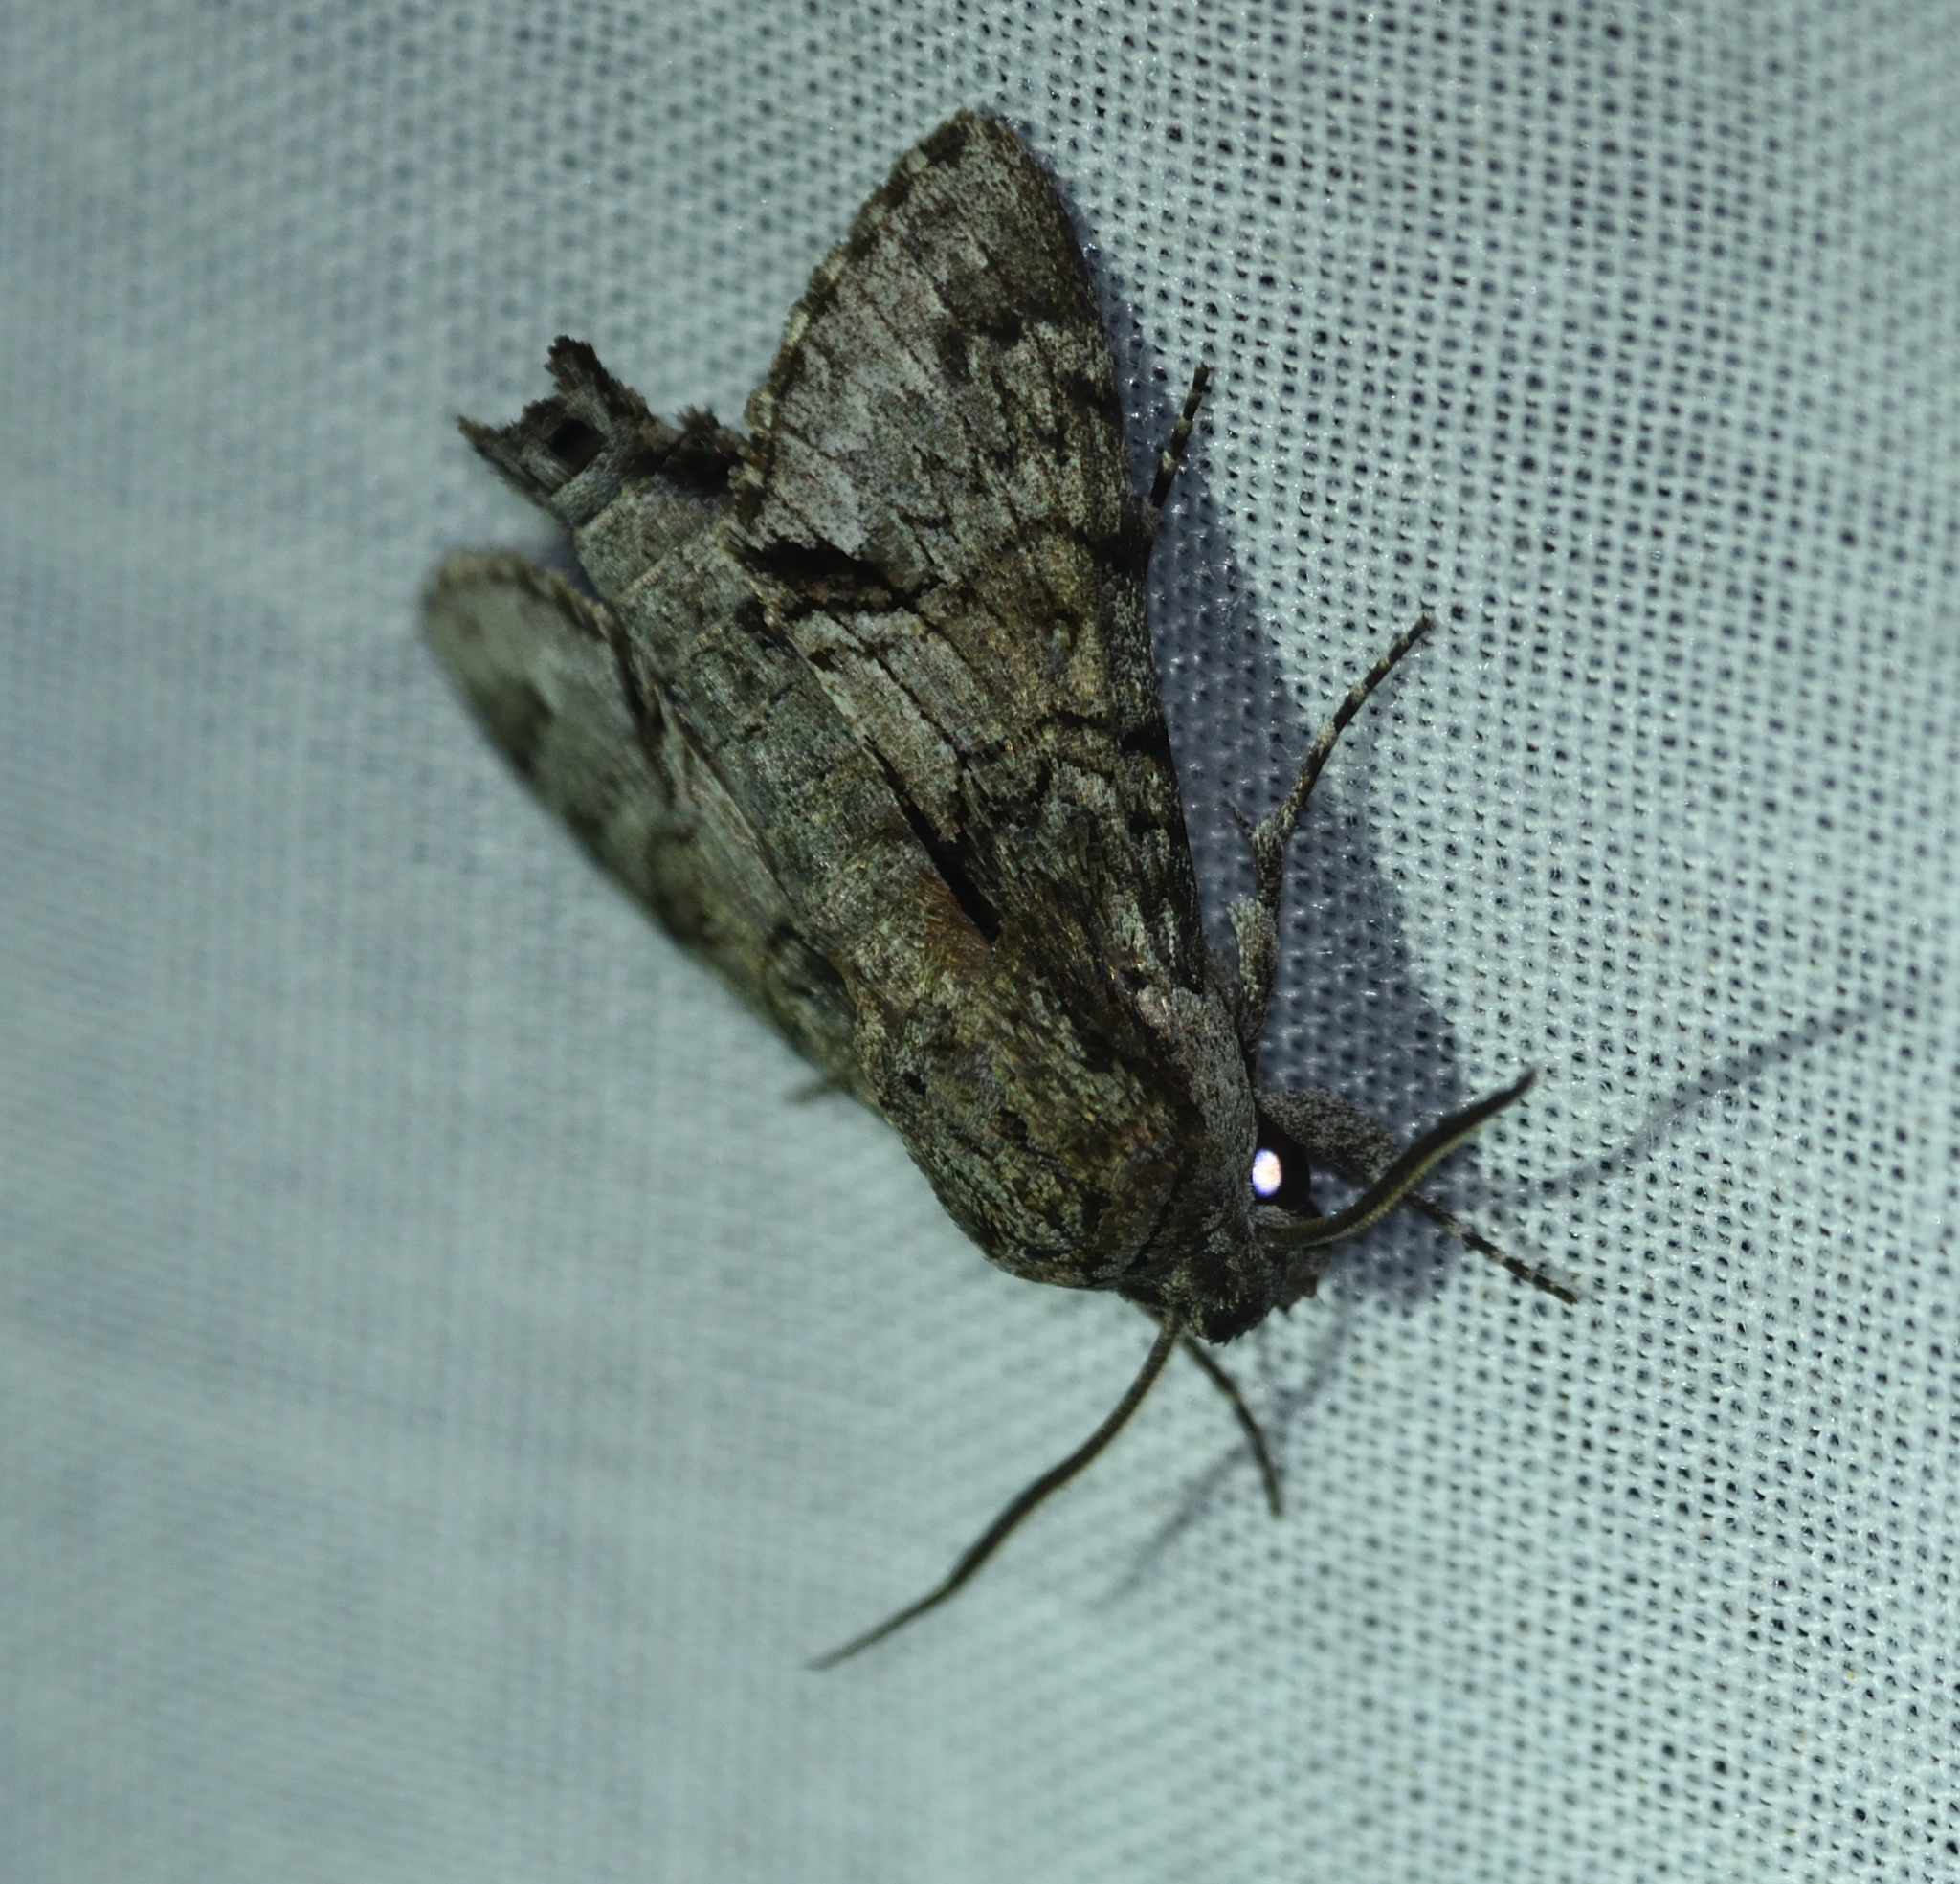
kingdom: Animalia
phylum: Arthropoda
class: Insecta
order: Lepidoptera
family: Sphingidae
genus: Cautethia
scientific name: Cautethia grotei
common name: Grote's sphinx
